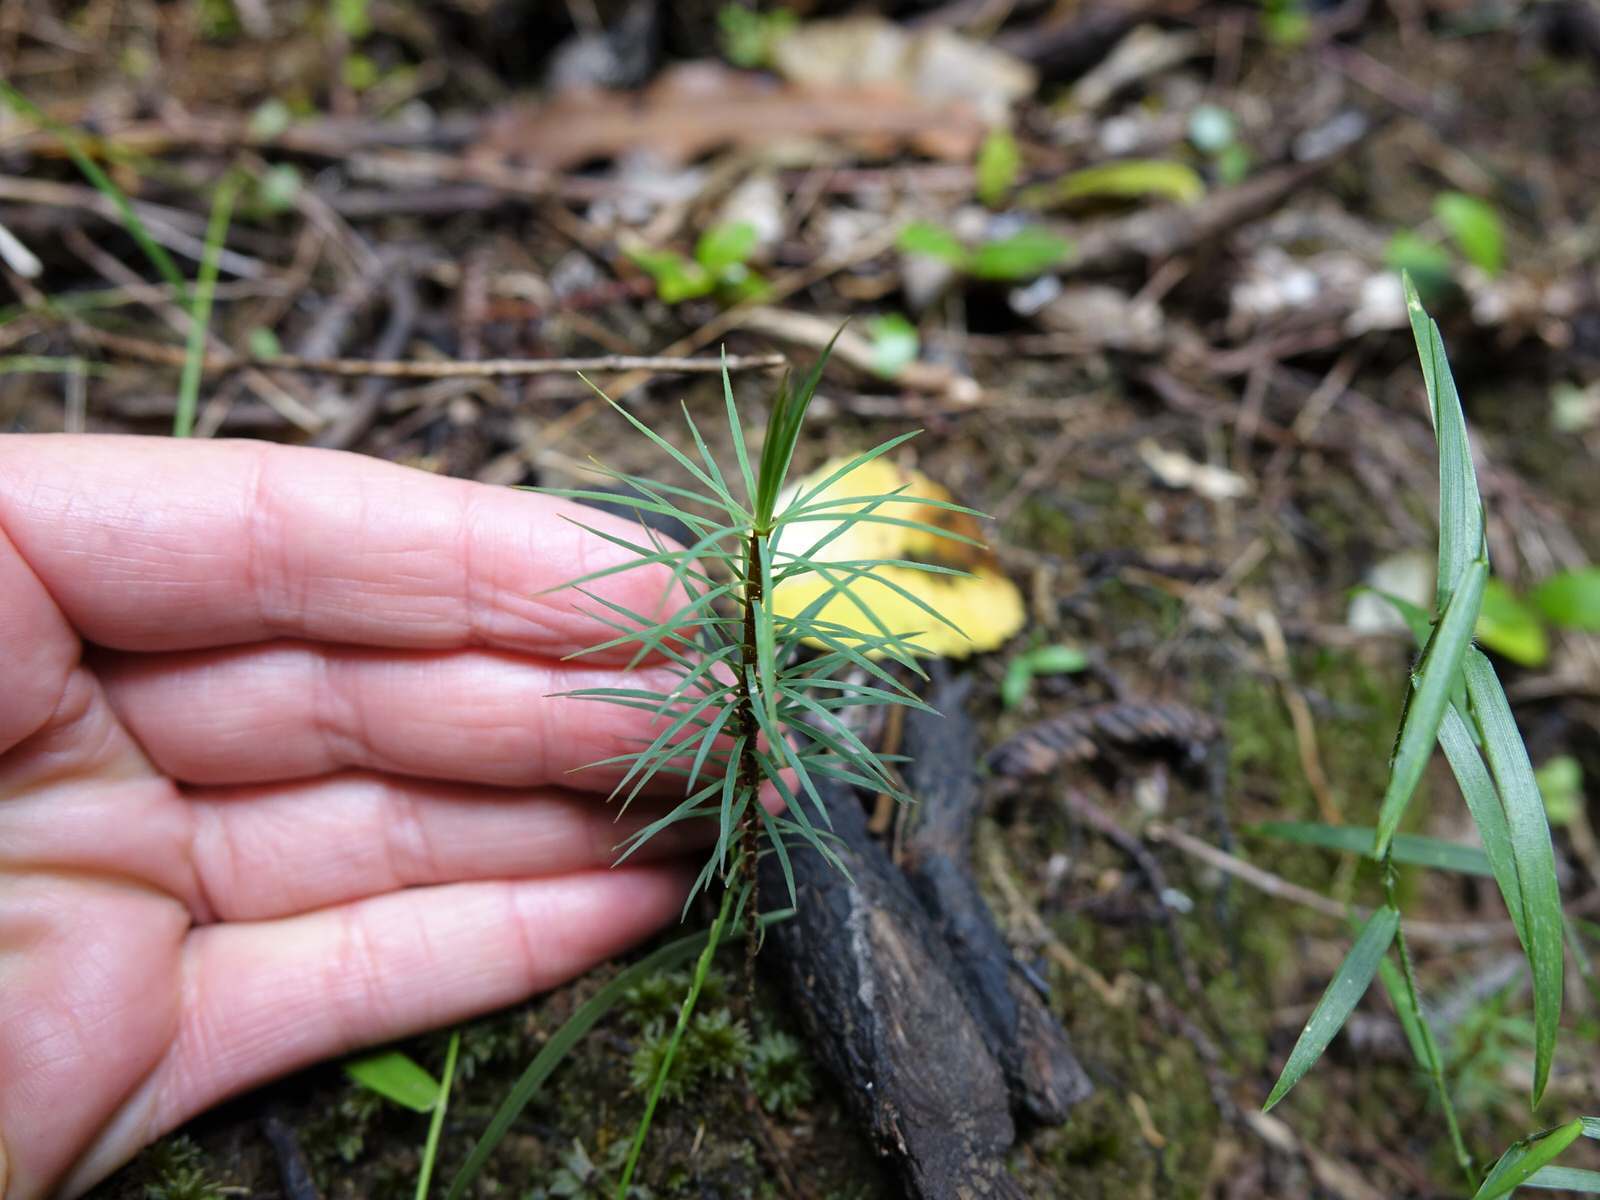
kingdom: Plantae
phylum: Bryophyta
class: Polytrichopsida
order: Polytrichales
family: Polytrichaceae
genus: Dawsonia
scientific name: Dawsonia superba
